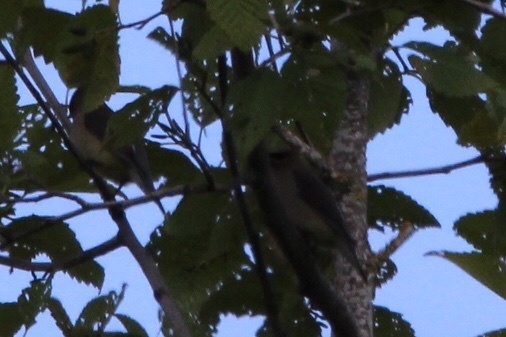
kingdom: Animalia
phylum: Chordata
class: Aves
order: Passeriformes
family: Bombycillidae
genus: Bombycilla
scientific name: Bombycilla cedrorum
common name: Cedar waxwing
